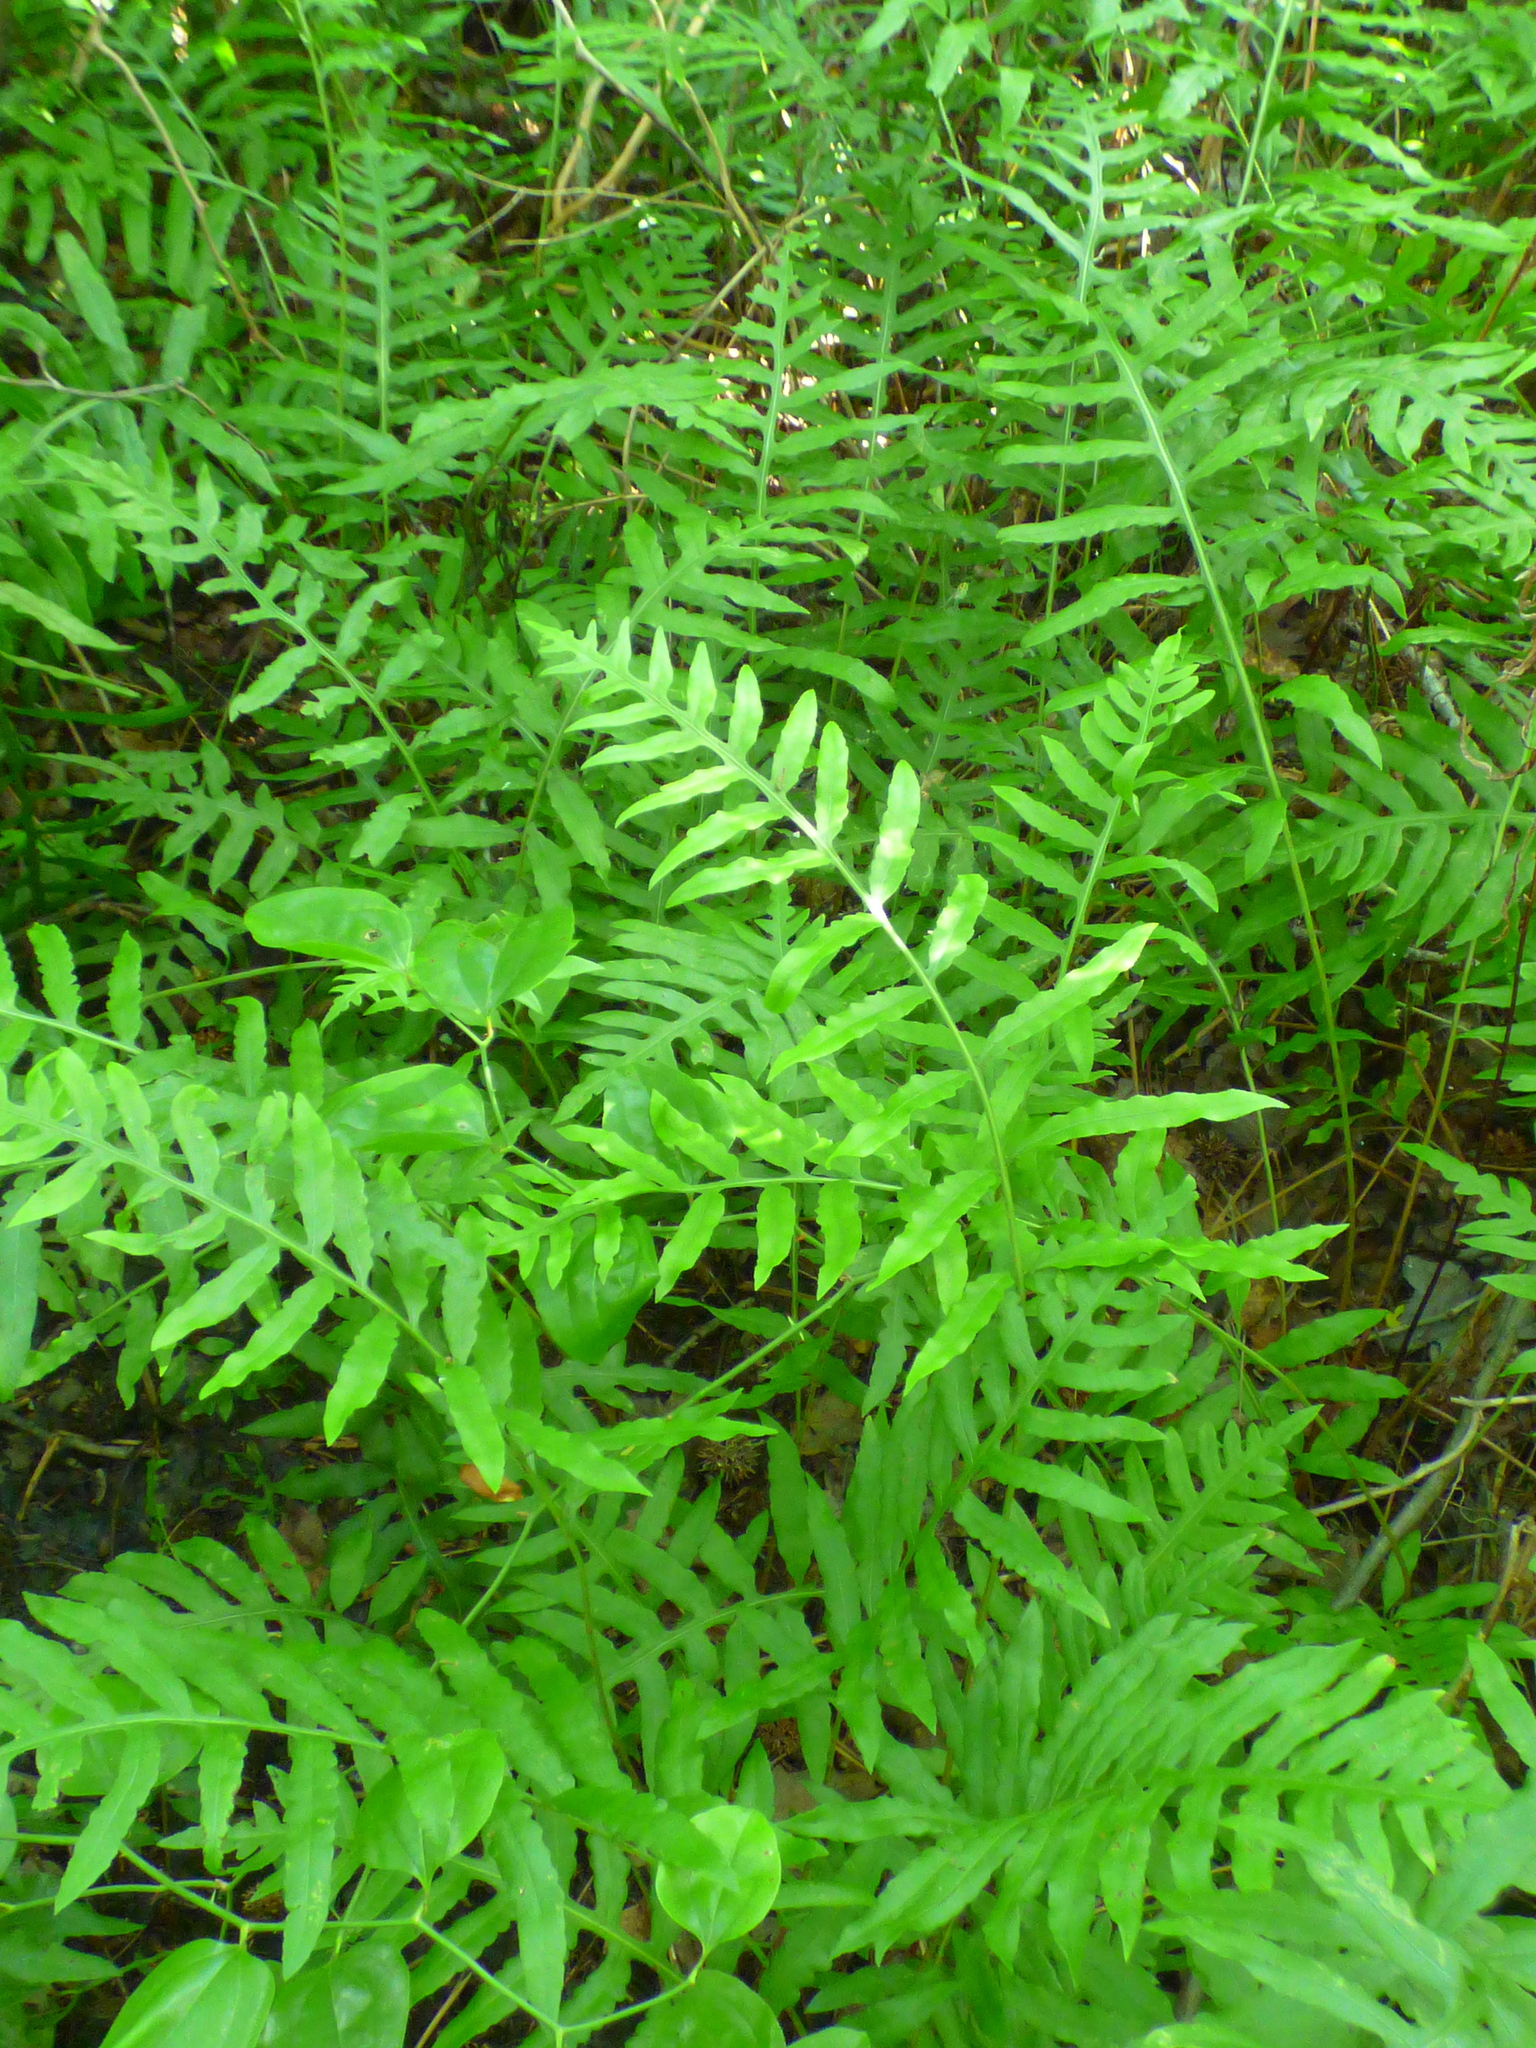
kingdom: Plantae
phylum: Tracheophyta
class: Polypodiopsida
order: Polypodiales
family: Blechnaceae
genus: Lorinseria
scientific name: Lorinseria areolata
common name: Dwarf chain fern
